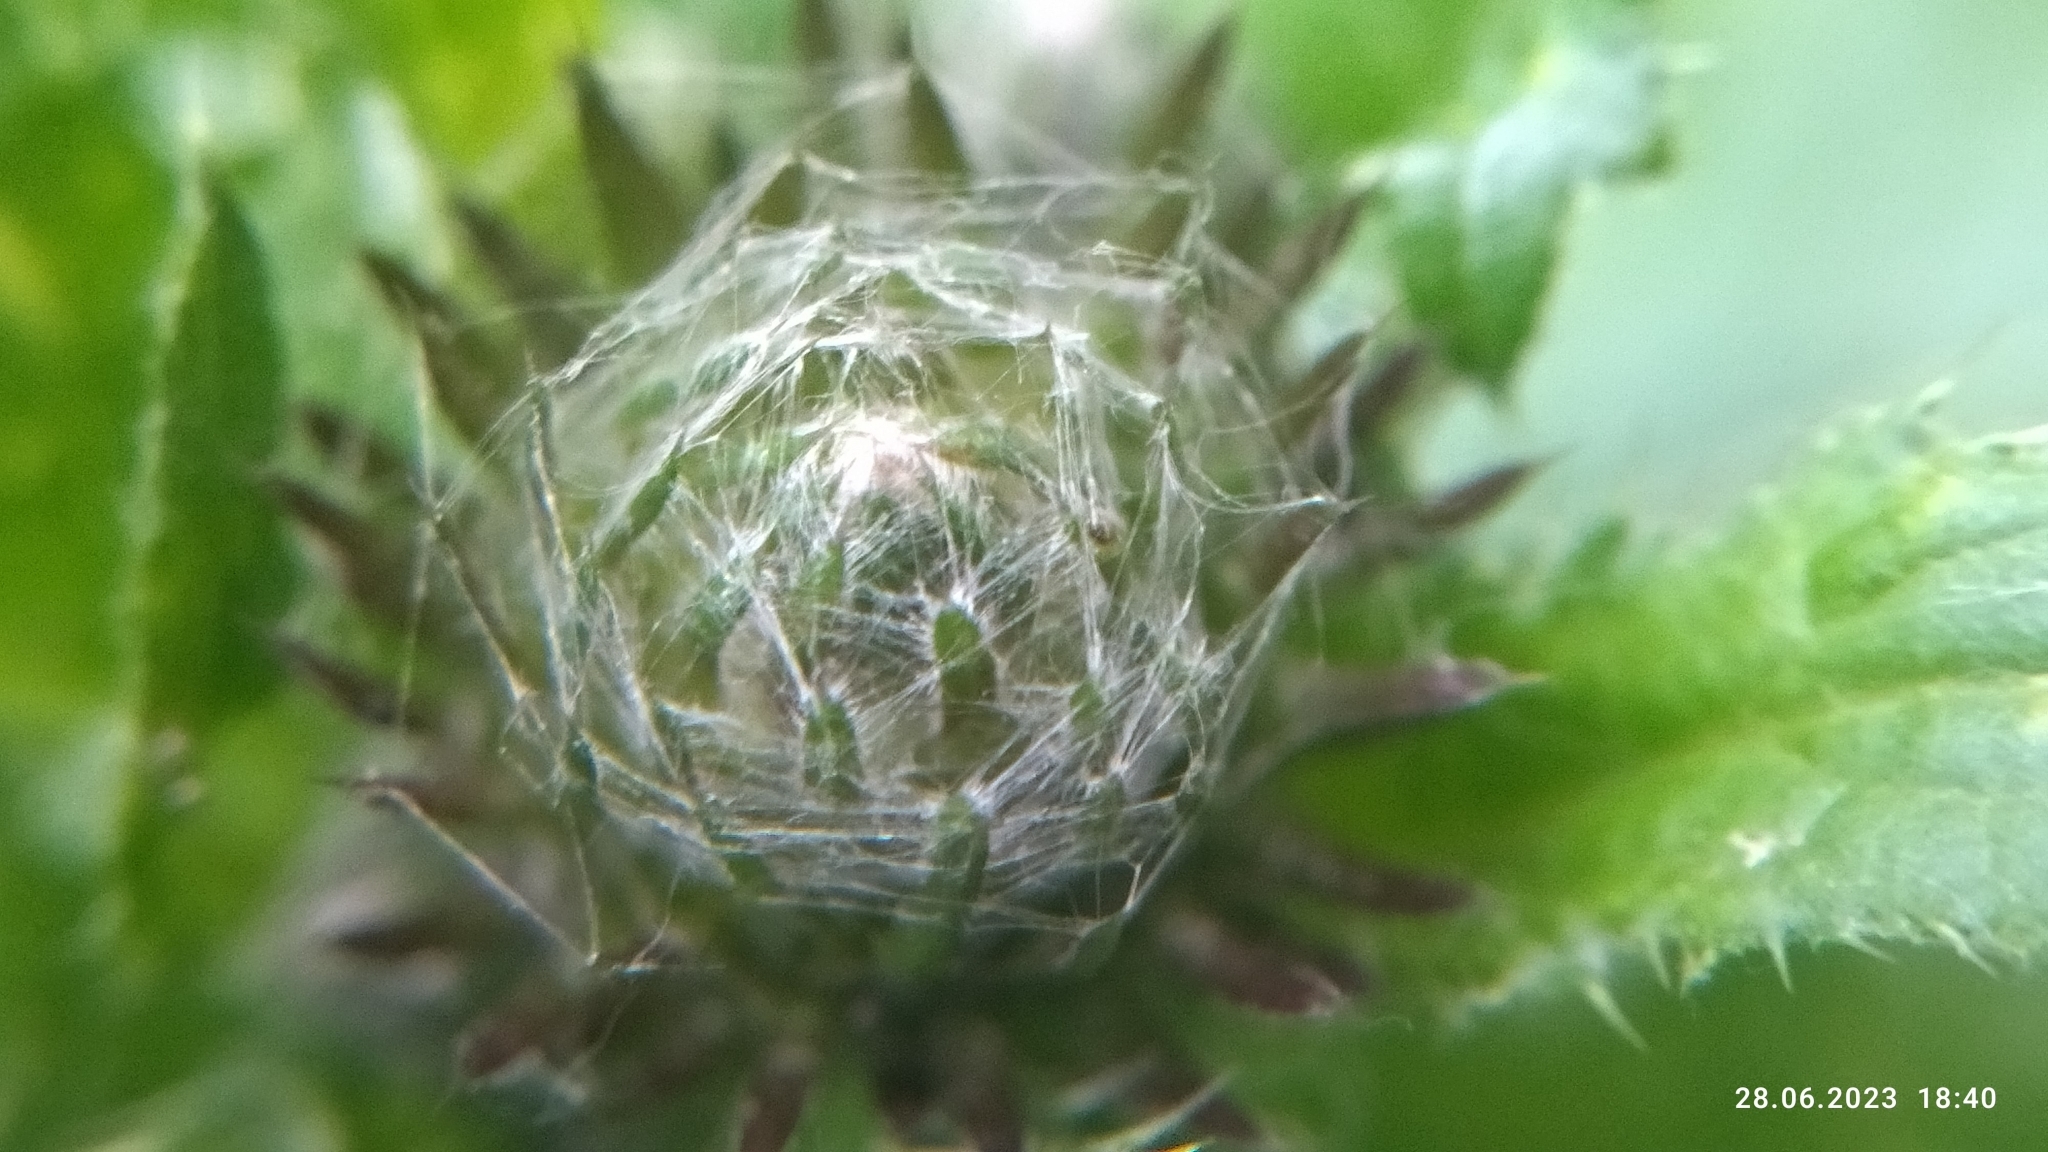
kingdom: Plantae
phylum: Tracheophyta
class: Magnoliopsida
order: Asterales
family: Asteraceae
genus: Carduus
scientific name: Carduus crispus
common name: Welted thistle
